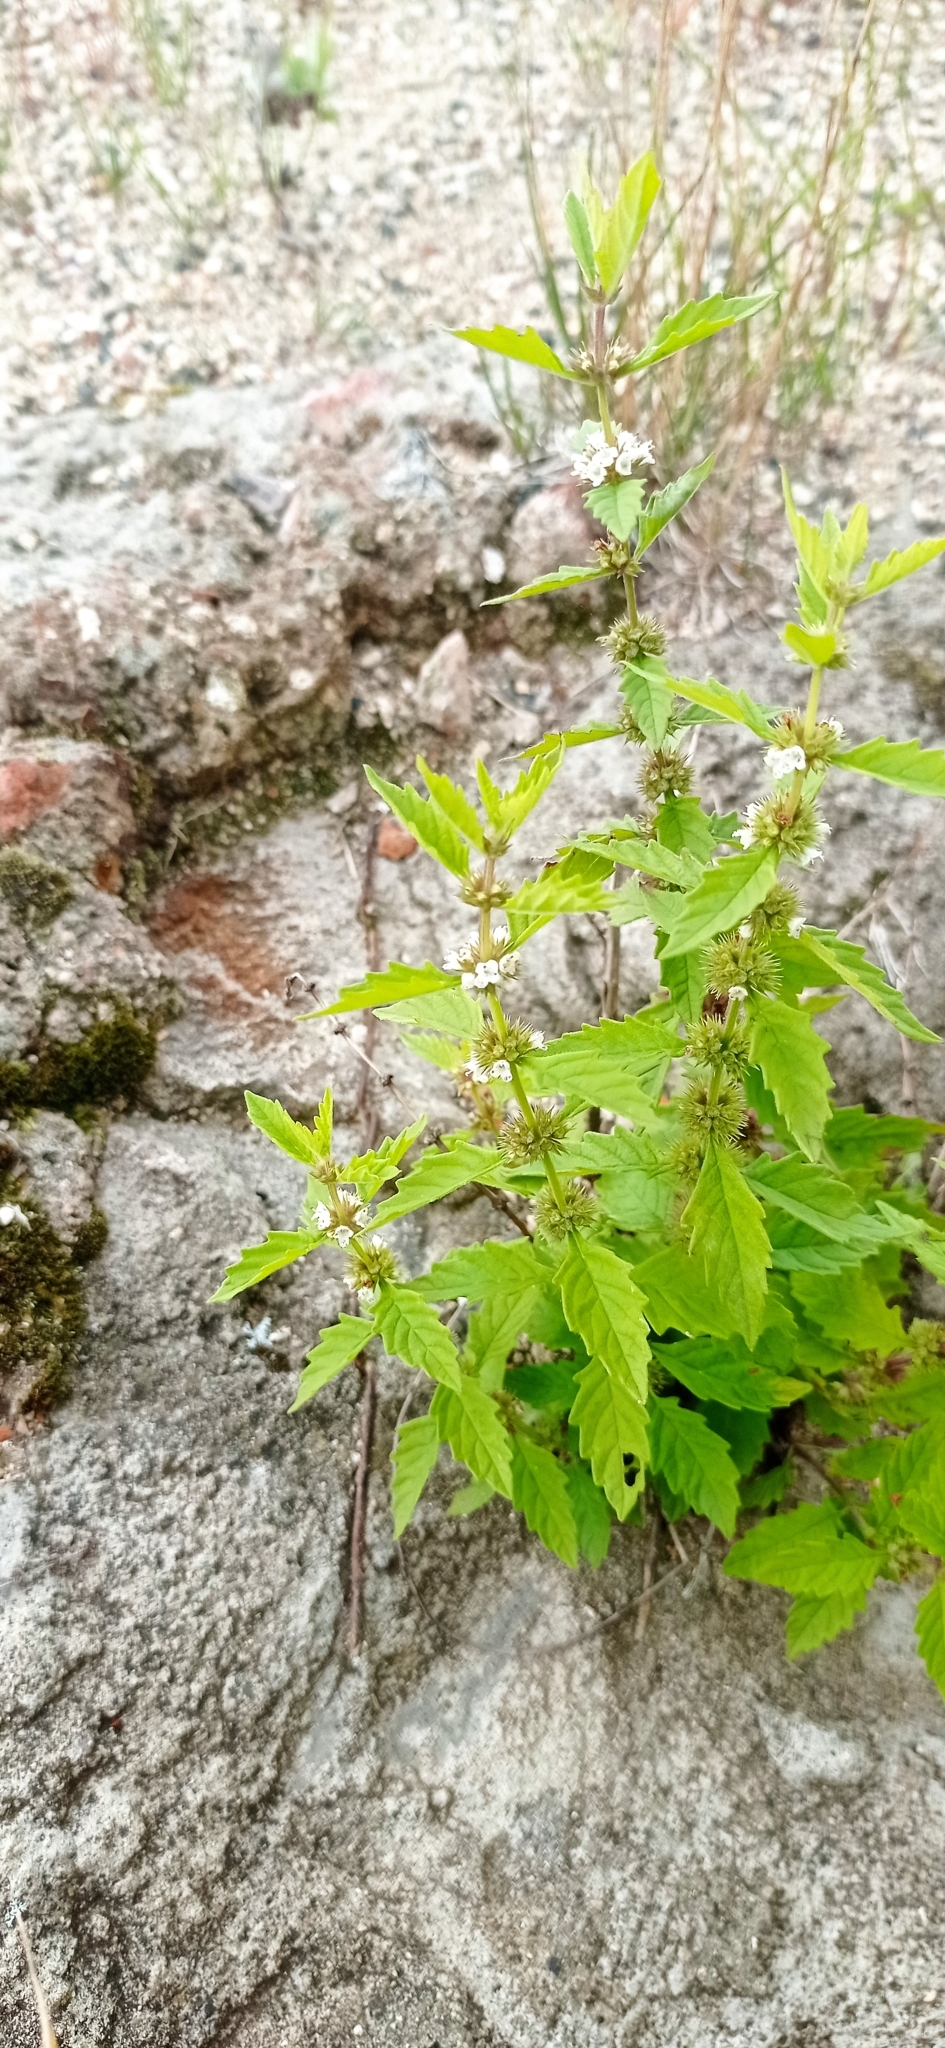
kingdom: Plantae
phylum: Tracheophyta
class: Magnoliopsida
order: Lamiales
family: Lamiaceae
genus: Lycopus
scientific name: Lycopus europaeus
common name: European bugleweed
